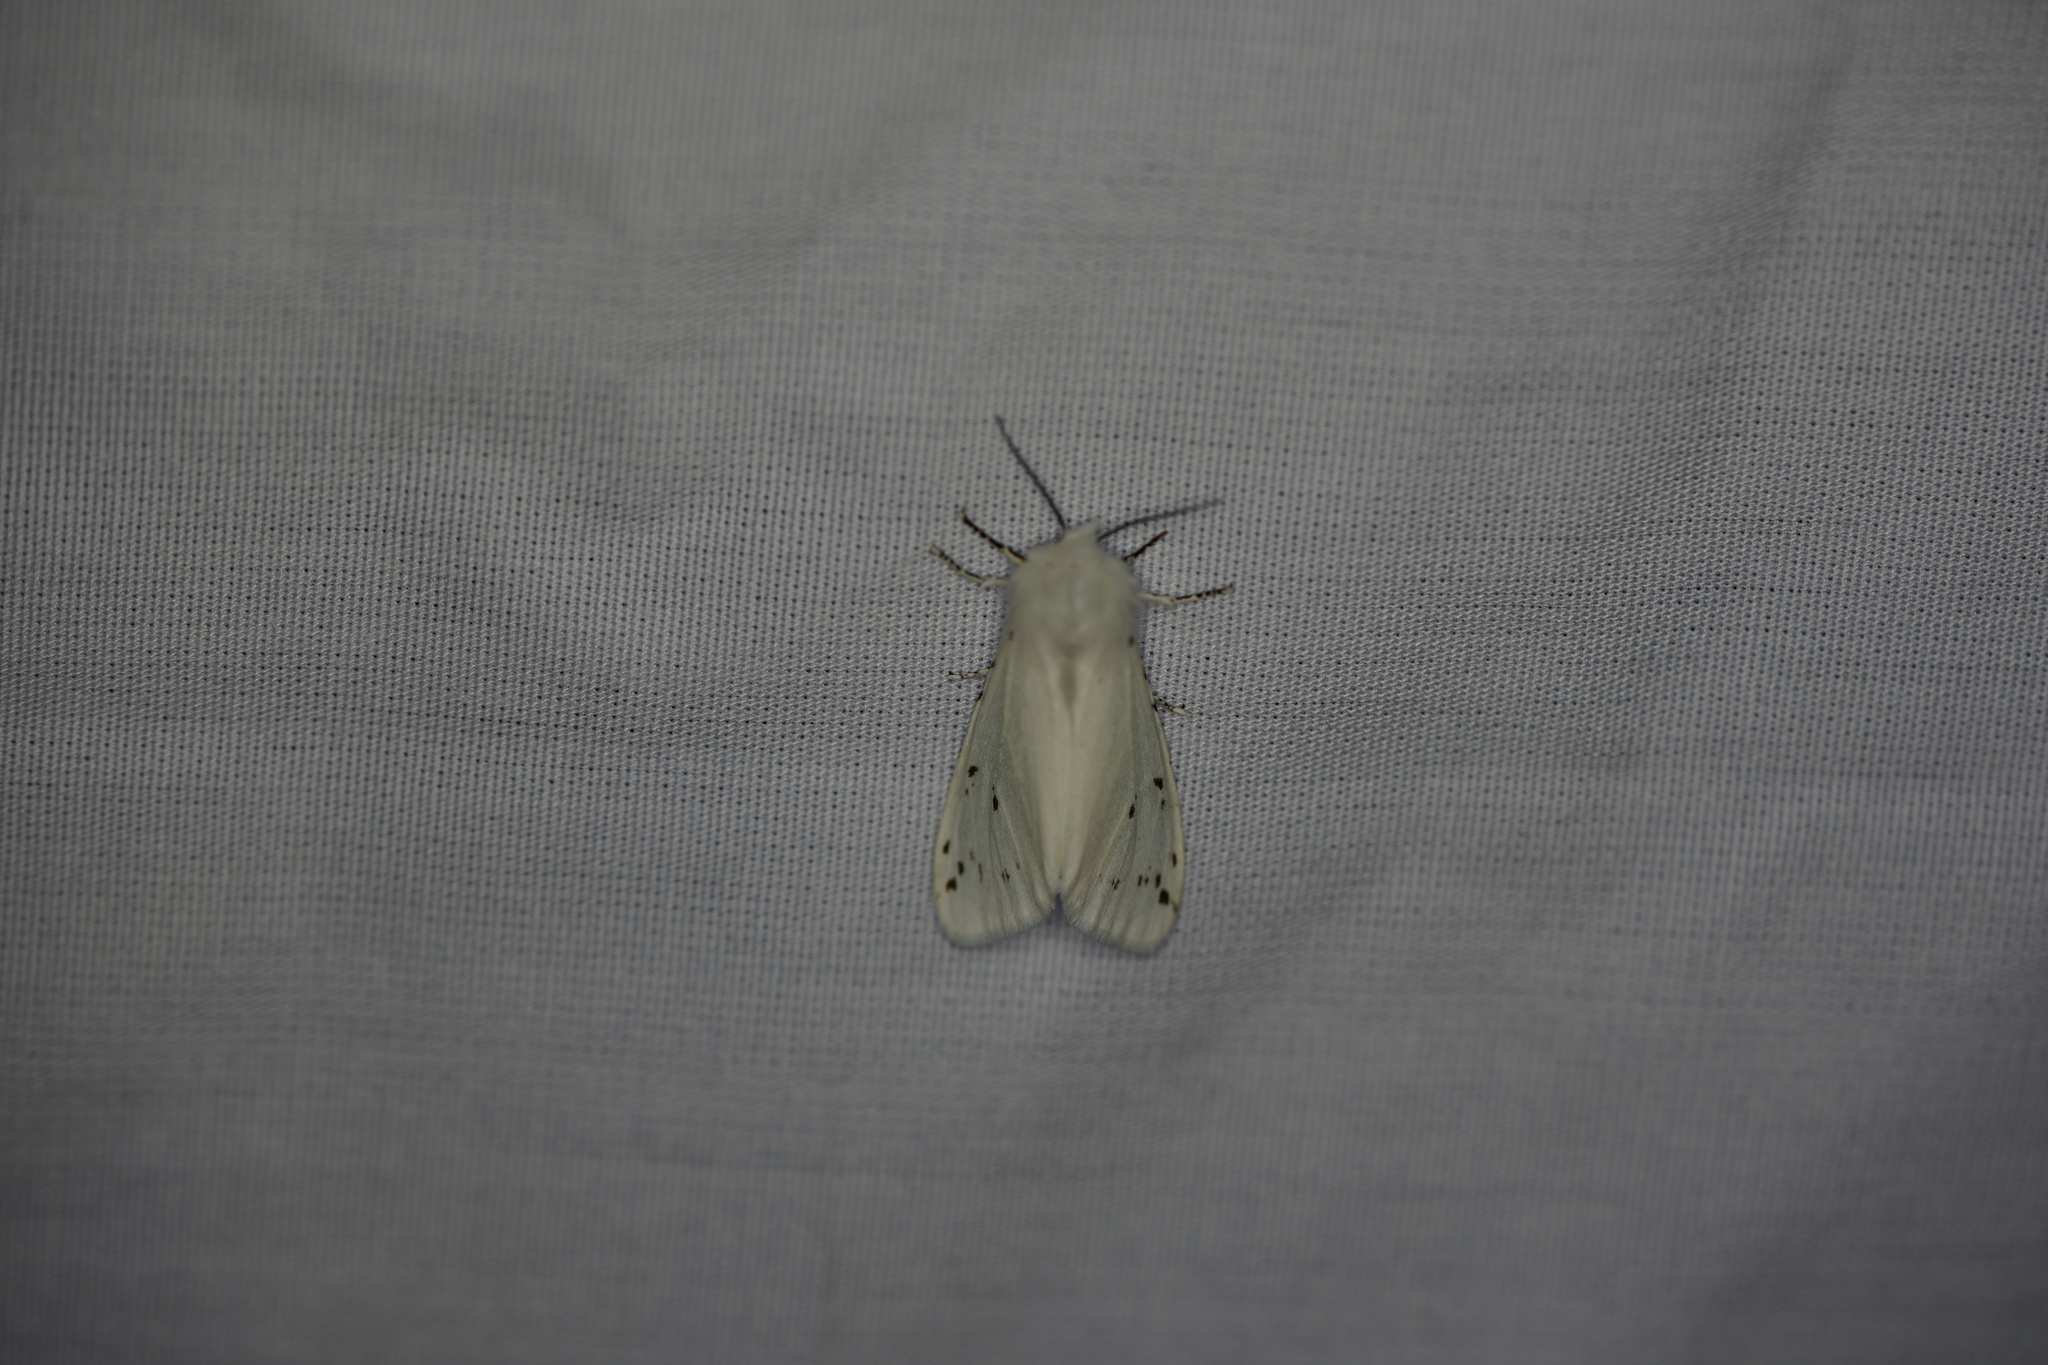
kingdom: Animalia
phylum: Arthropoda
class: Insecta
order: Lepidoptera
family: Erebidae
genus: Hyphantria
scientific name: Hyphantria cunea
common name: American white moth
